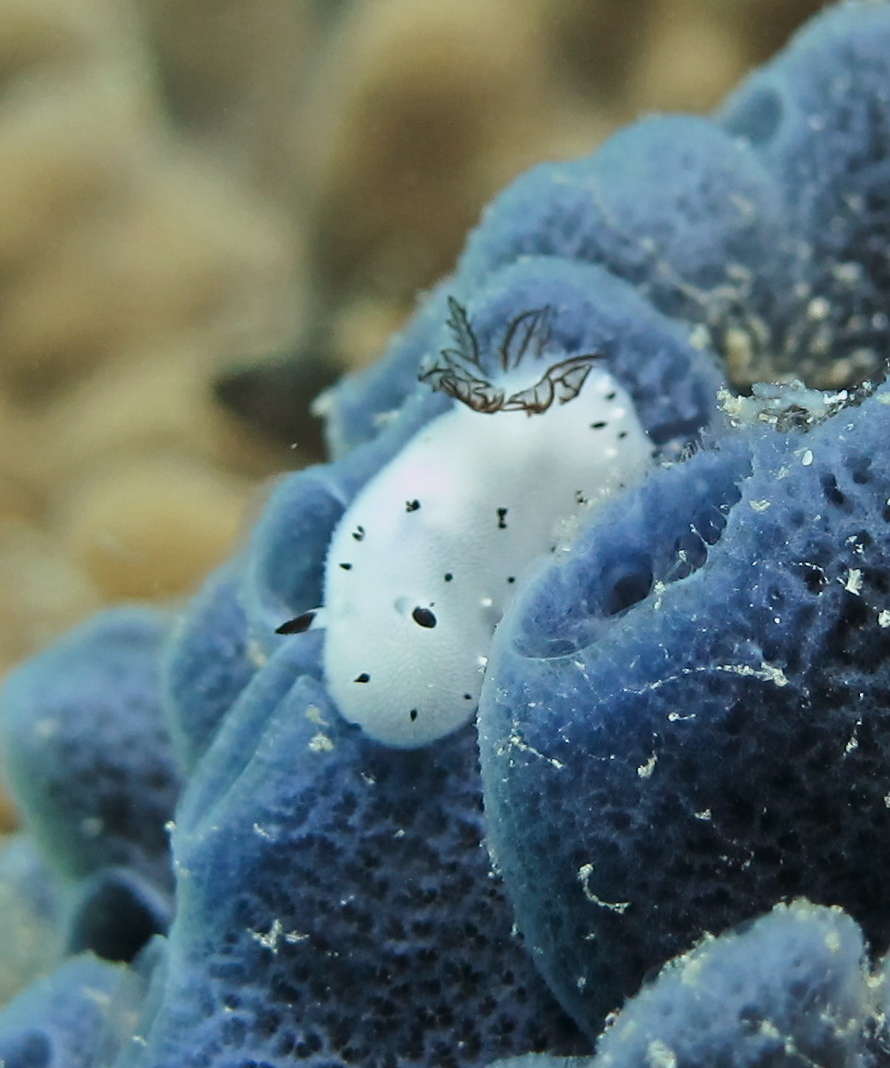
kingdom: Animalia
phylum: Mollusca
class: Gastropoda
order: Nudibranchia
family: Discodorididae
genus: Jorunna
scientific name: Jorunna funebris
